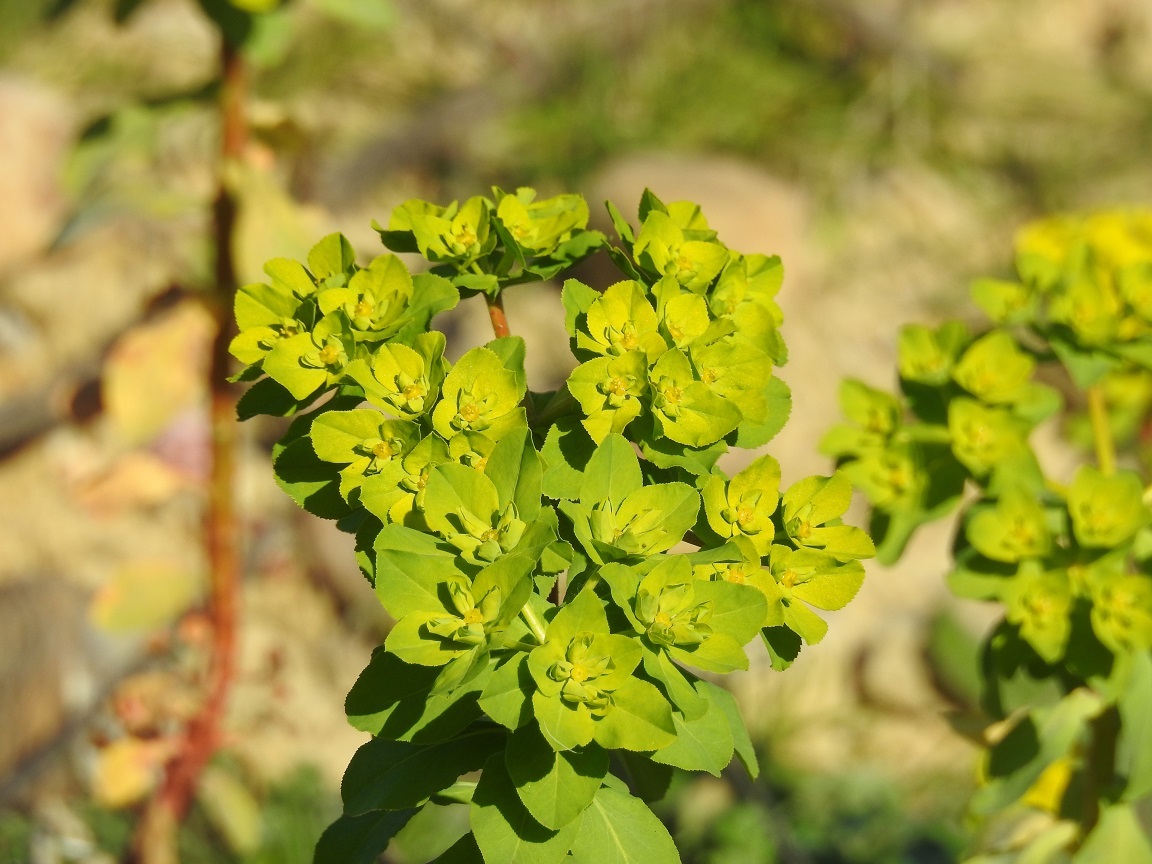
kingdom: Plantae
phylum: Tracheophyta
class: Magnoliopsida
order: Malpighiales
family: Euphorbiaceae
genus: Euphorbia
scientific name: Euphorbia helioscopia
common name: Sun spurge
